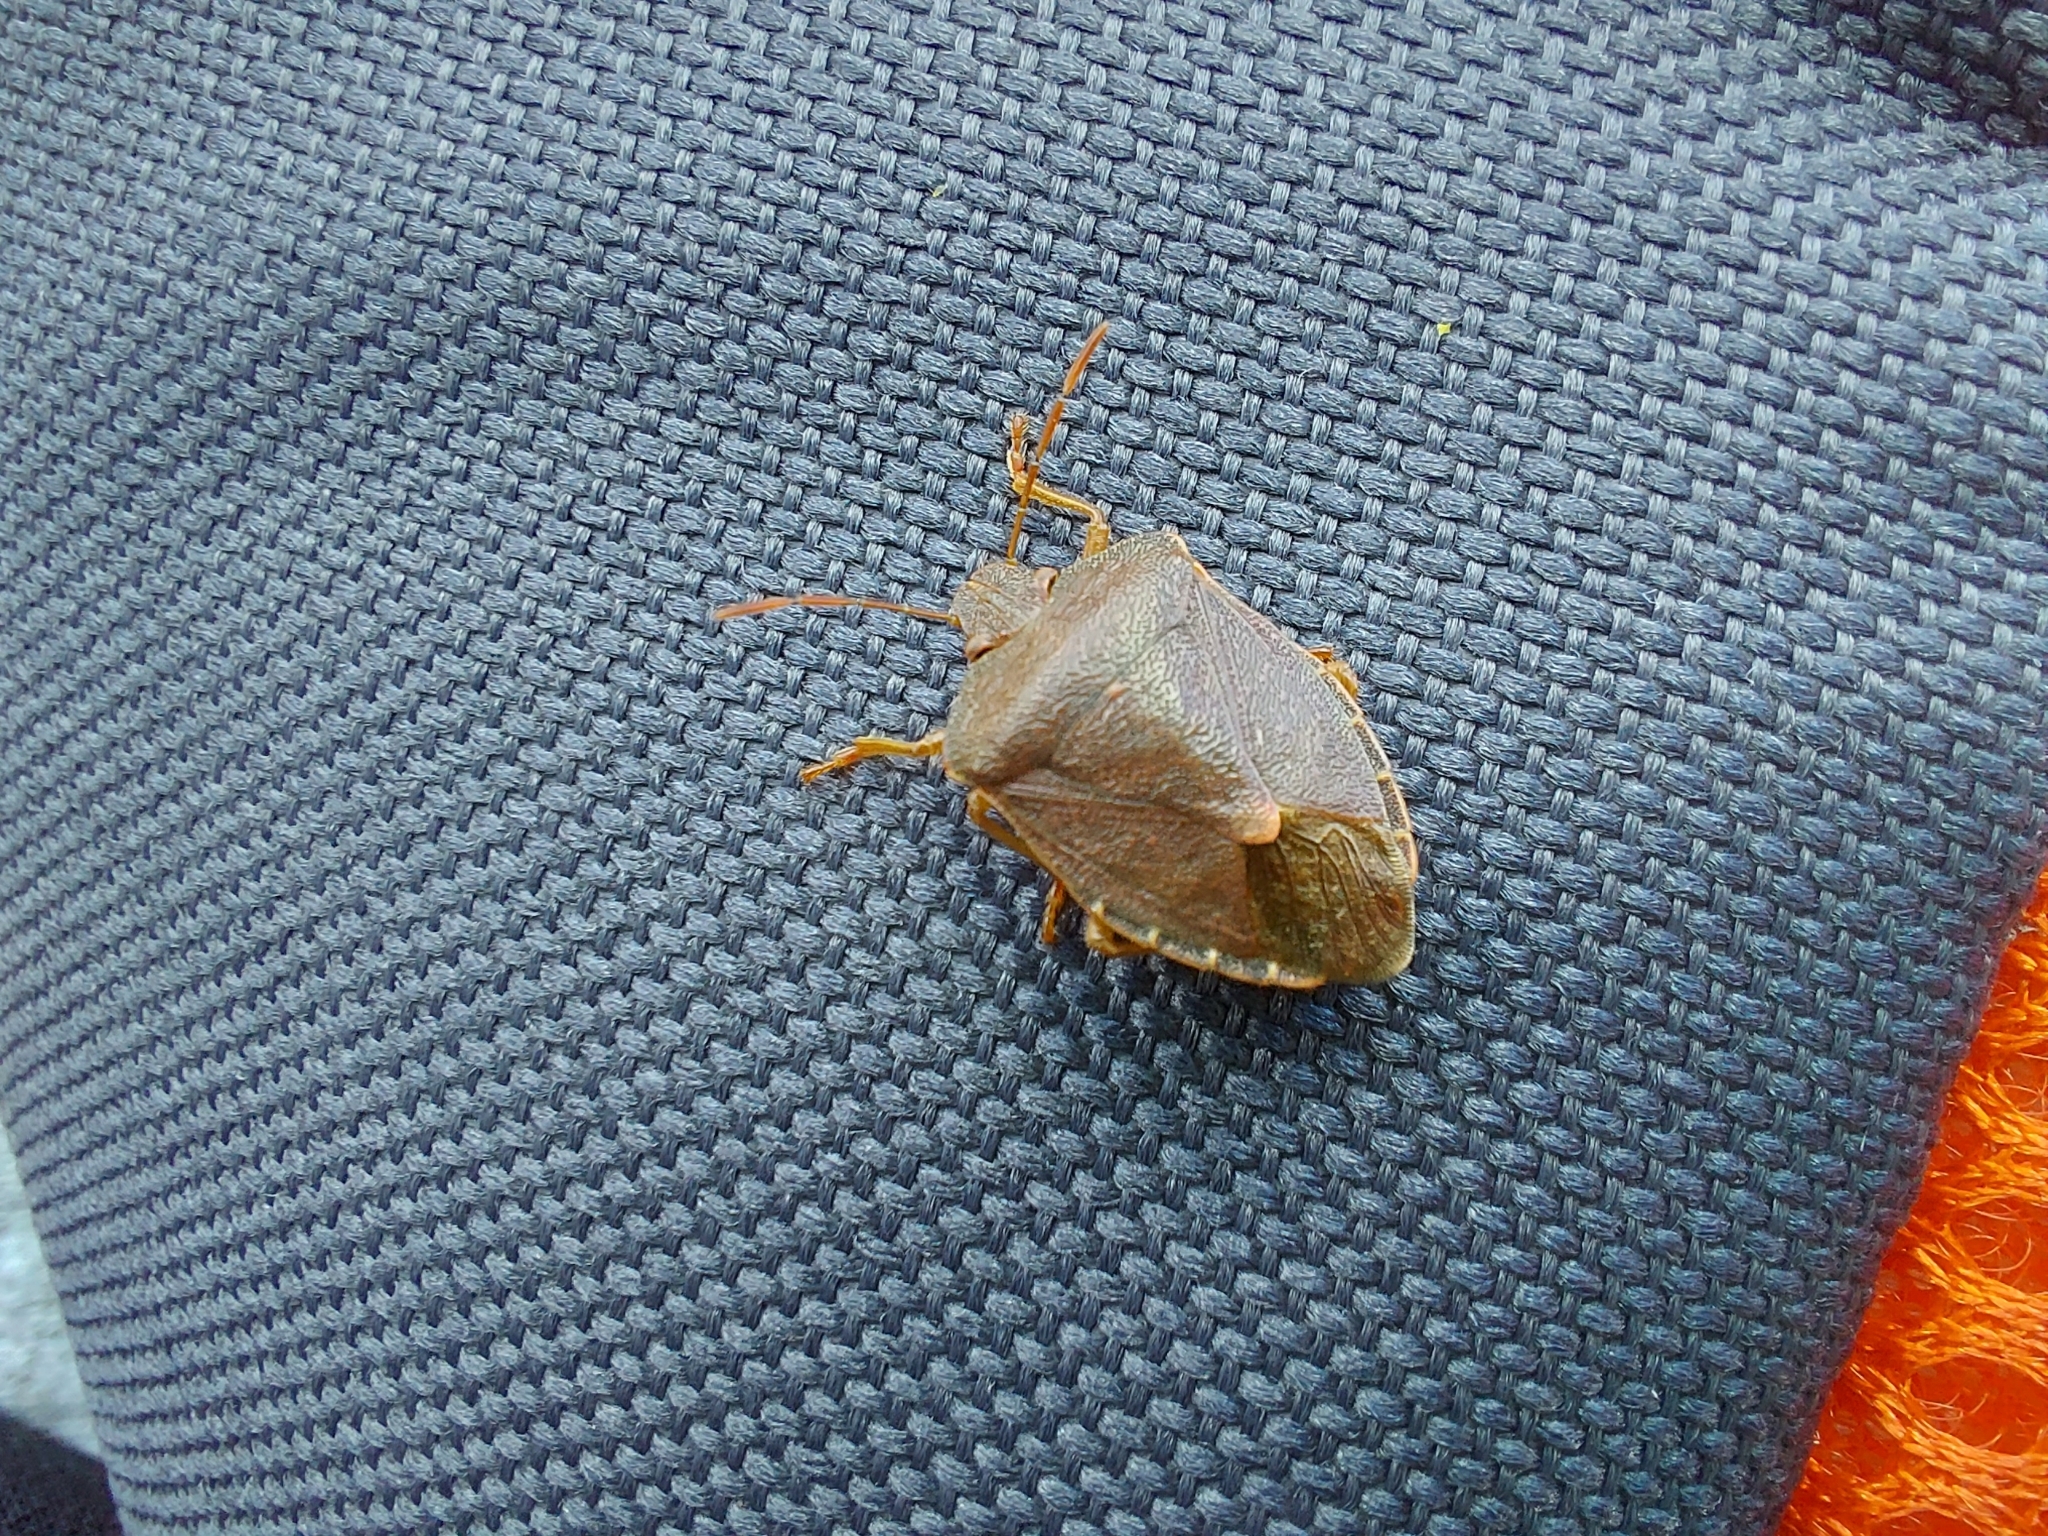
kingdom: Animalia
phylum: Arthropoda
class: Insecta
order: Hemiptera
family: Pentatomidae
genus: Palomena
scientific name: Palomena prasina
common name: Green shieldbug
